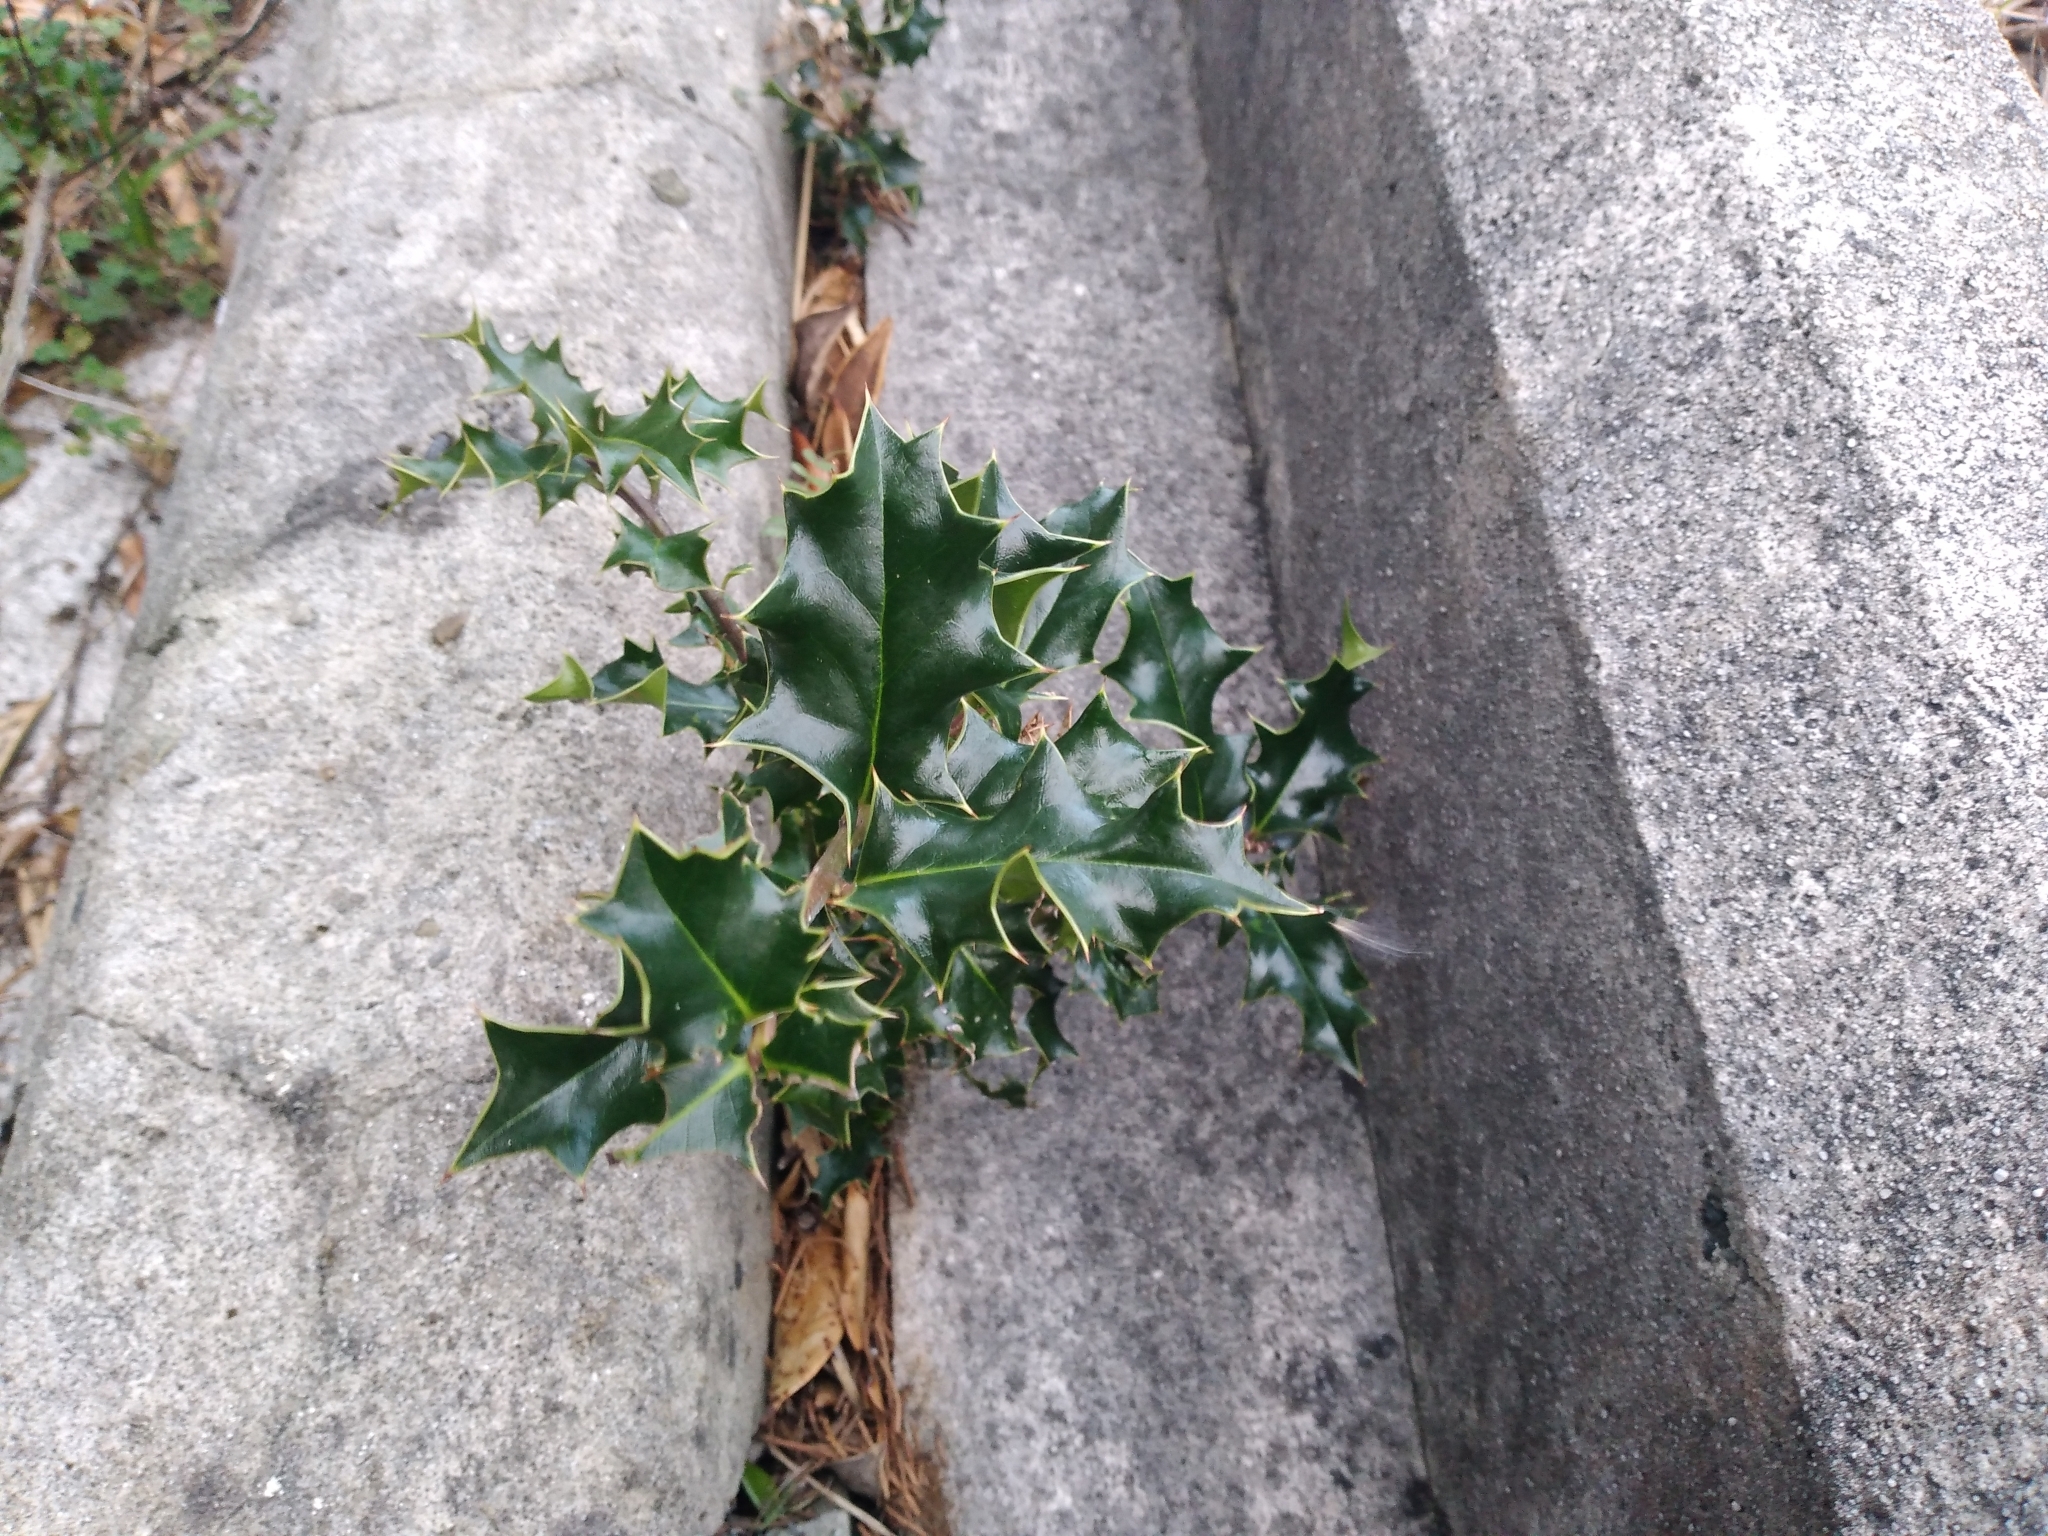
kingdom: Plantae
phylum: Tracheophyta
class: Magnoliopsida
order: Aquifoliales
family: Aquifoliaceae
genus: Ilex
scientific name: Ilex aquifolium
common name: English holly
